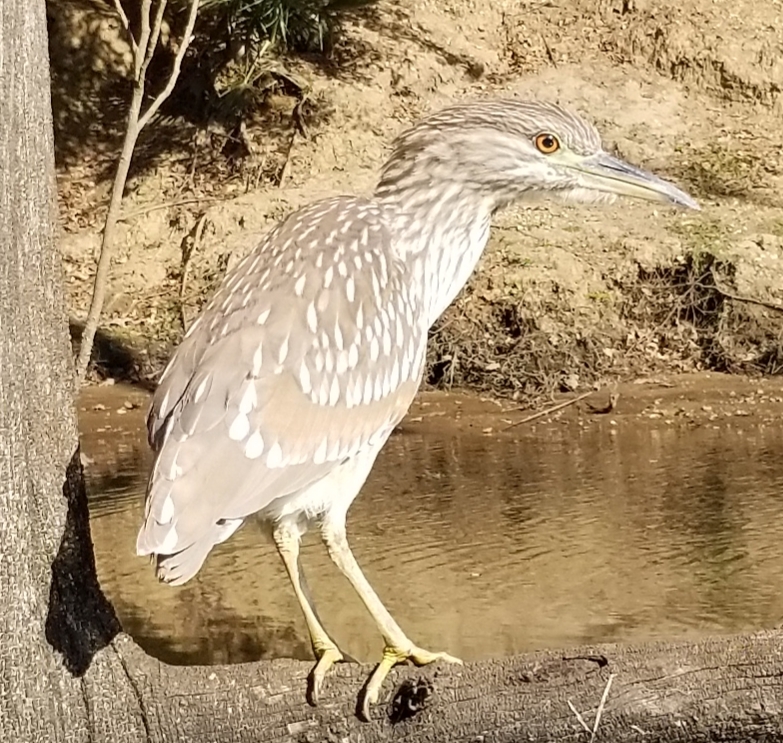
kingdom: Animalia
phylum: Chordata
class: Aves
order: Pelecaniformes
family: Ardeidae
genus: Nycticorax
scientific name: Nycticorax nycticorax
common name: Black-crowned night heron
